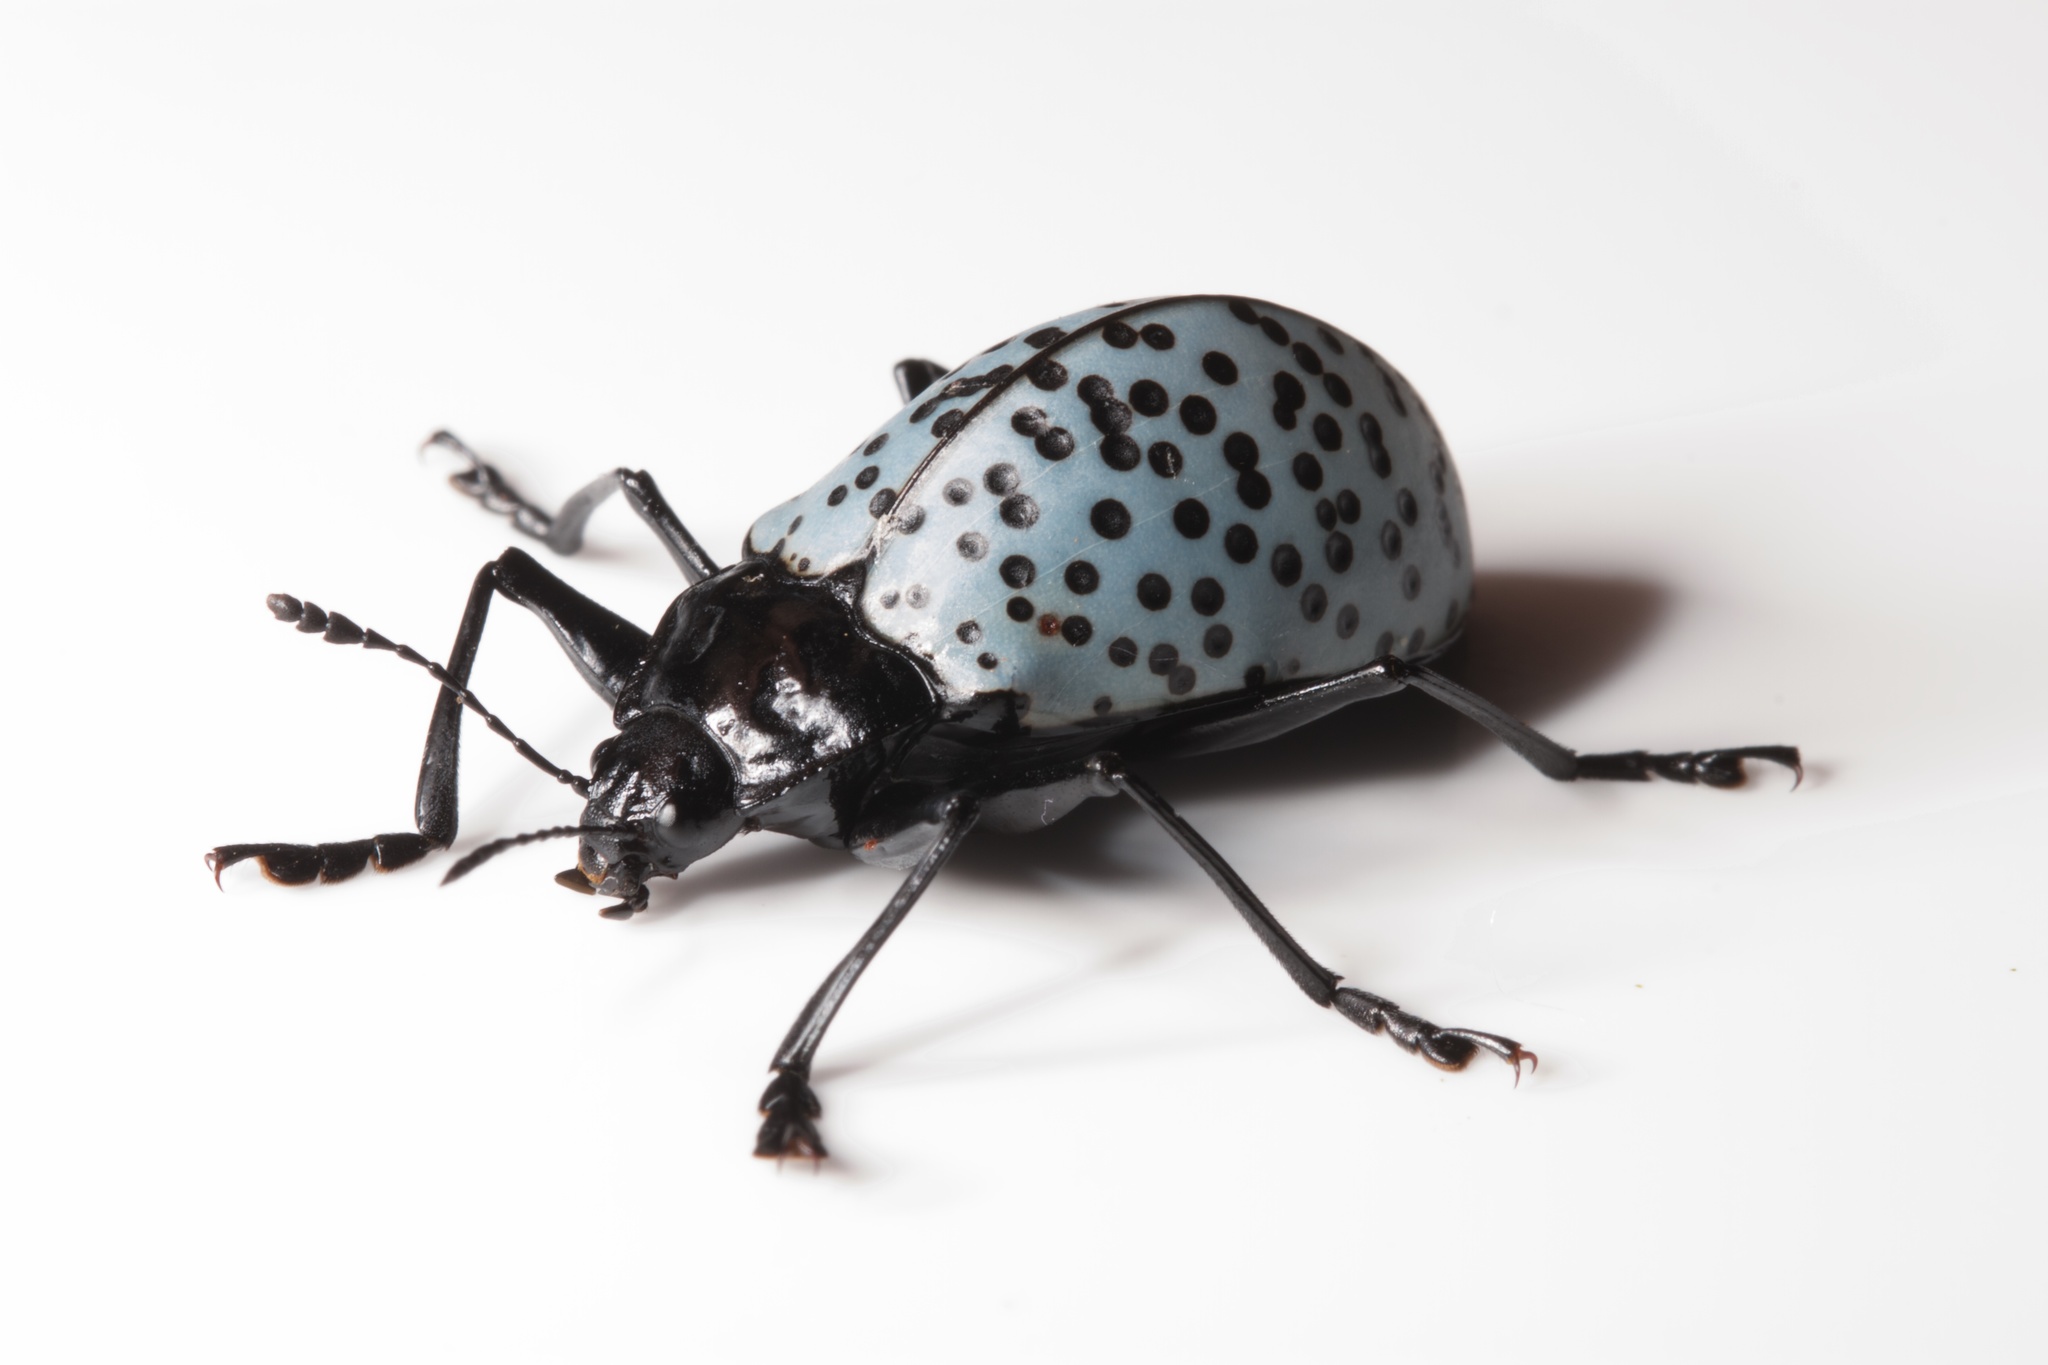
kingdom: Animalia
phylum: Arthropoda
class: Insecta
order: Coleoptera
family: Erotylidae
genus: Gibbifer
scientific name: Gibbifer
